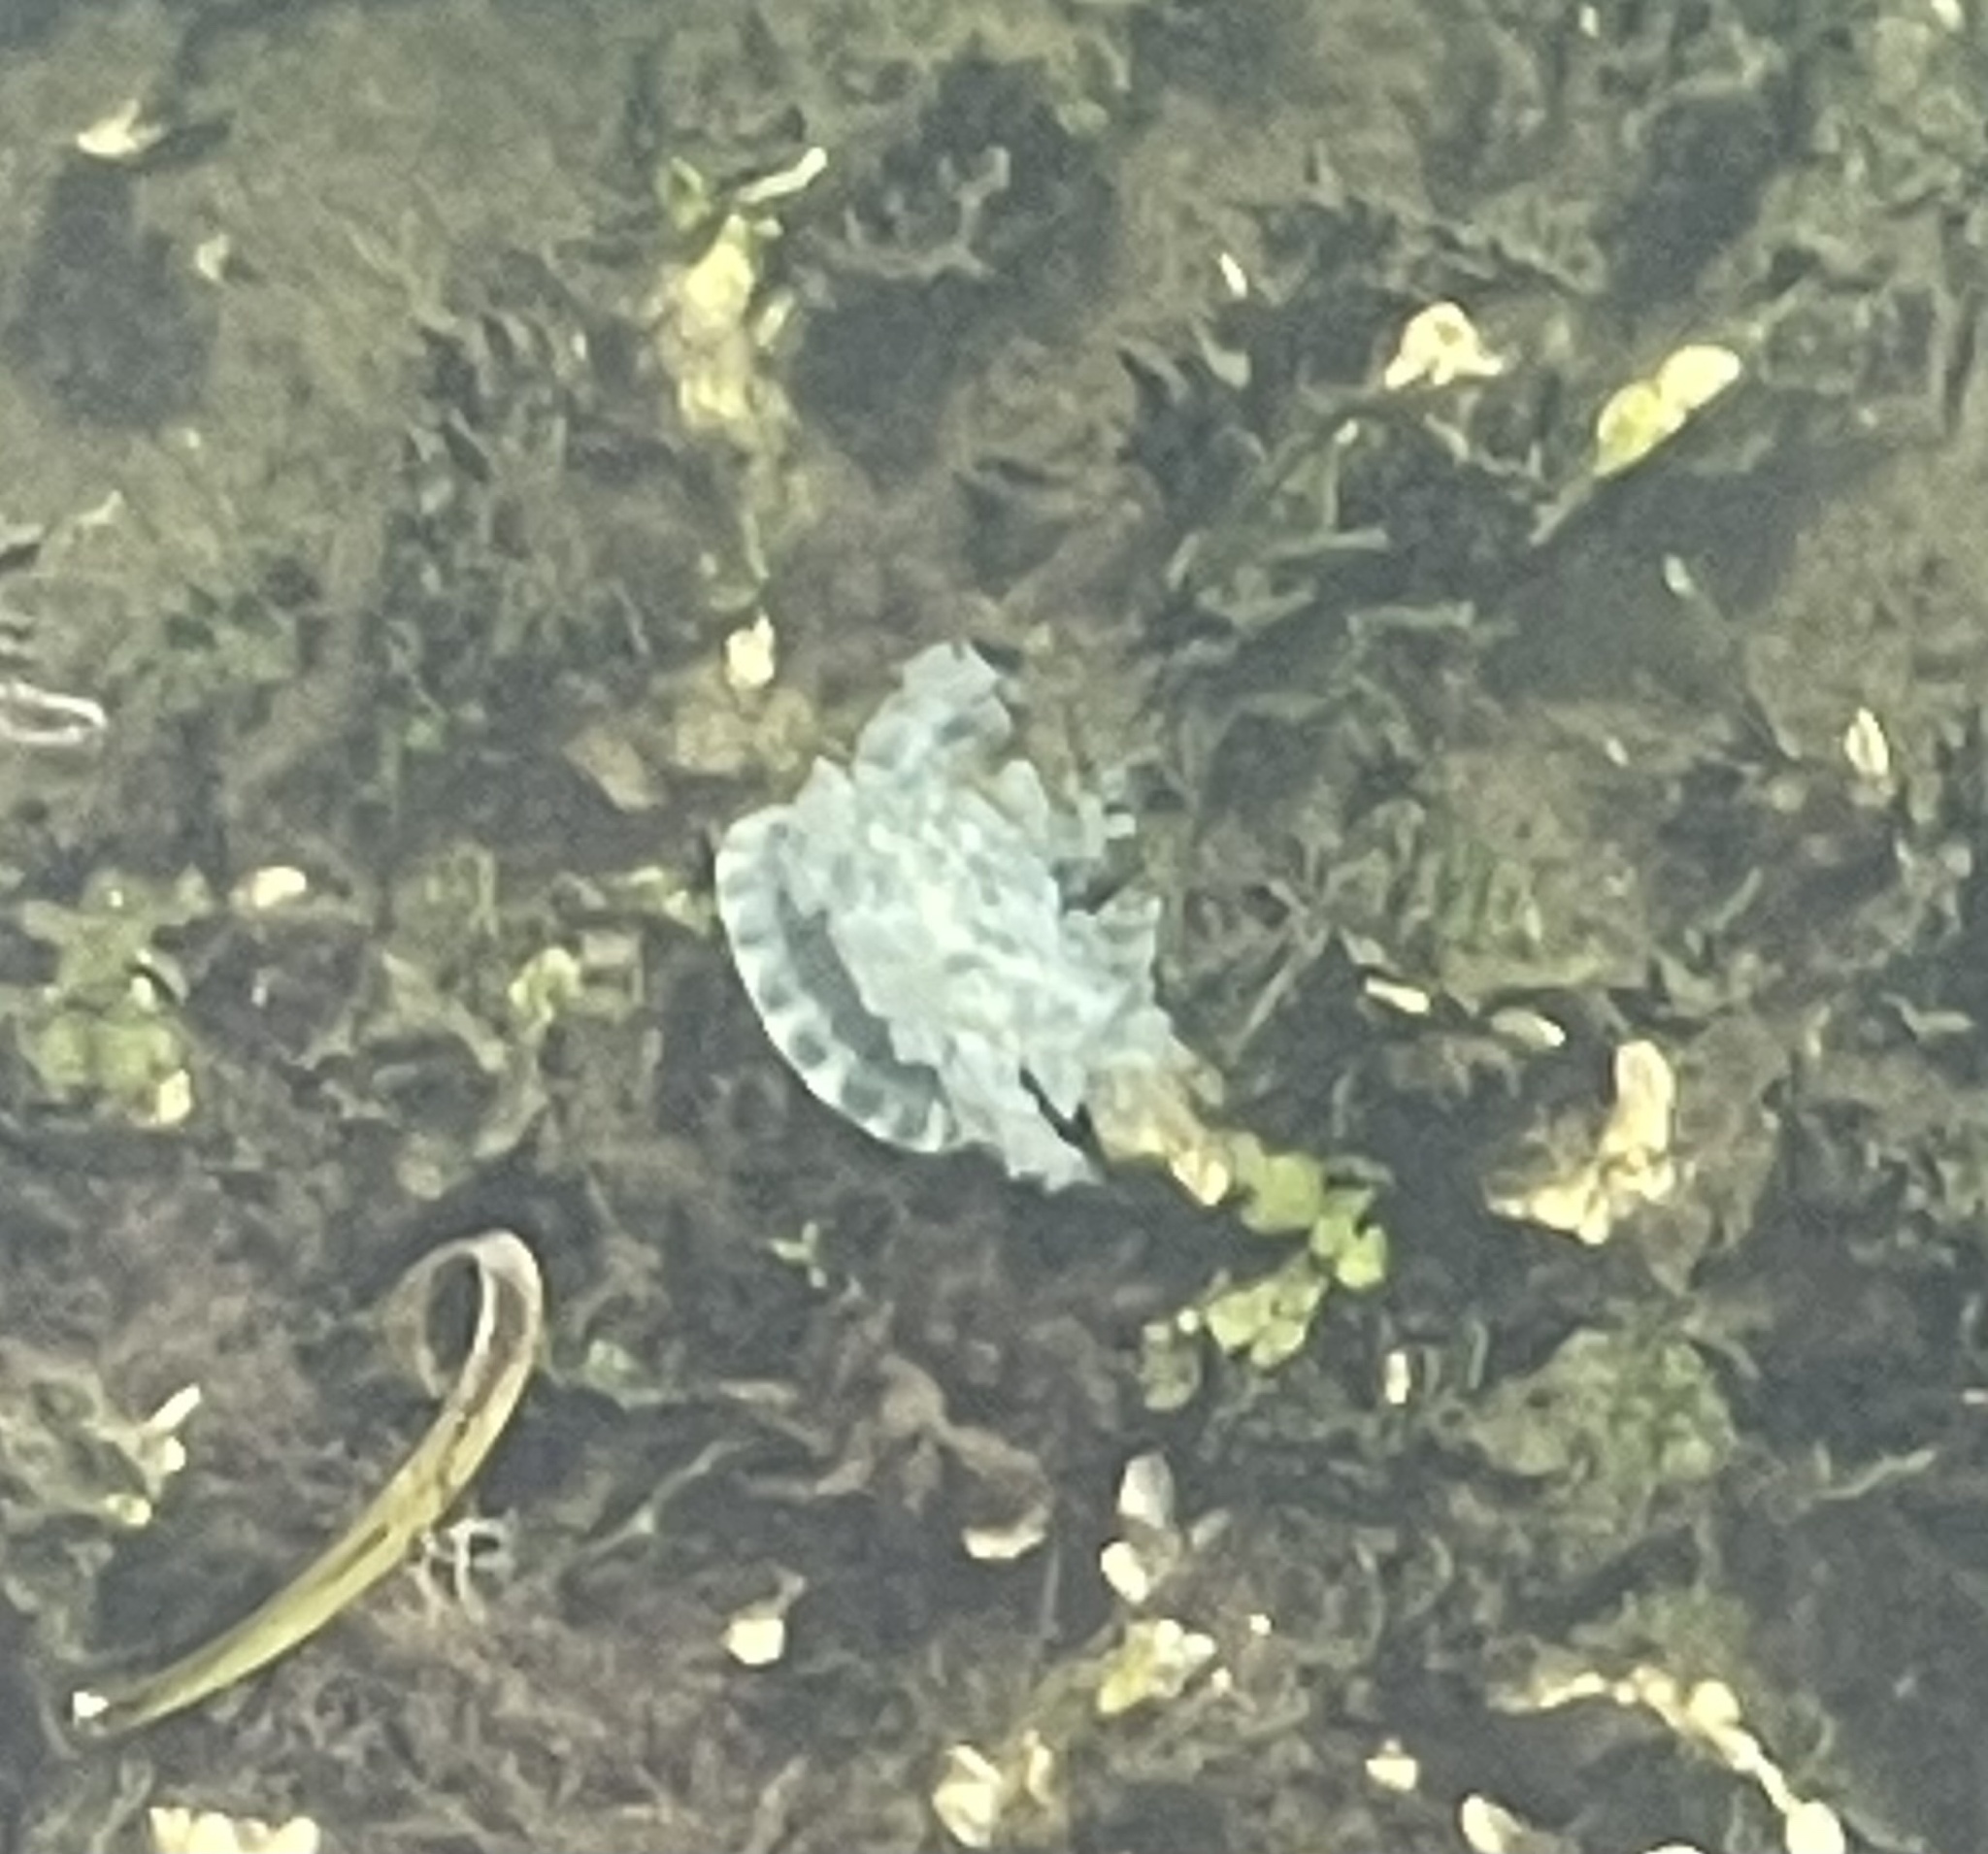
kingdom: Animalia
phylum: Cnidaria
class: Scyphozoa
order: Rhizostomeae
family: Cassiopeidae
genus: Cassiopea
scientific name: Cassiopea andromeda
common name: Upside-down jellyfish
